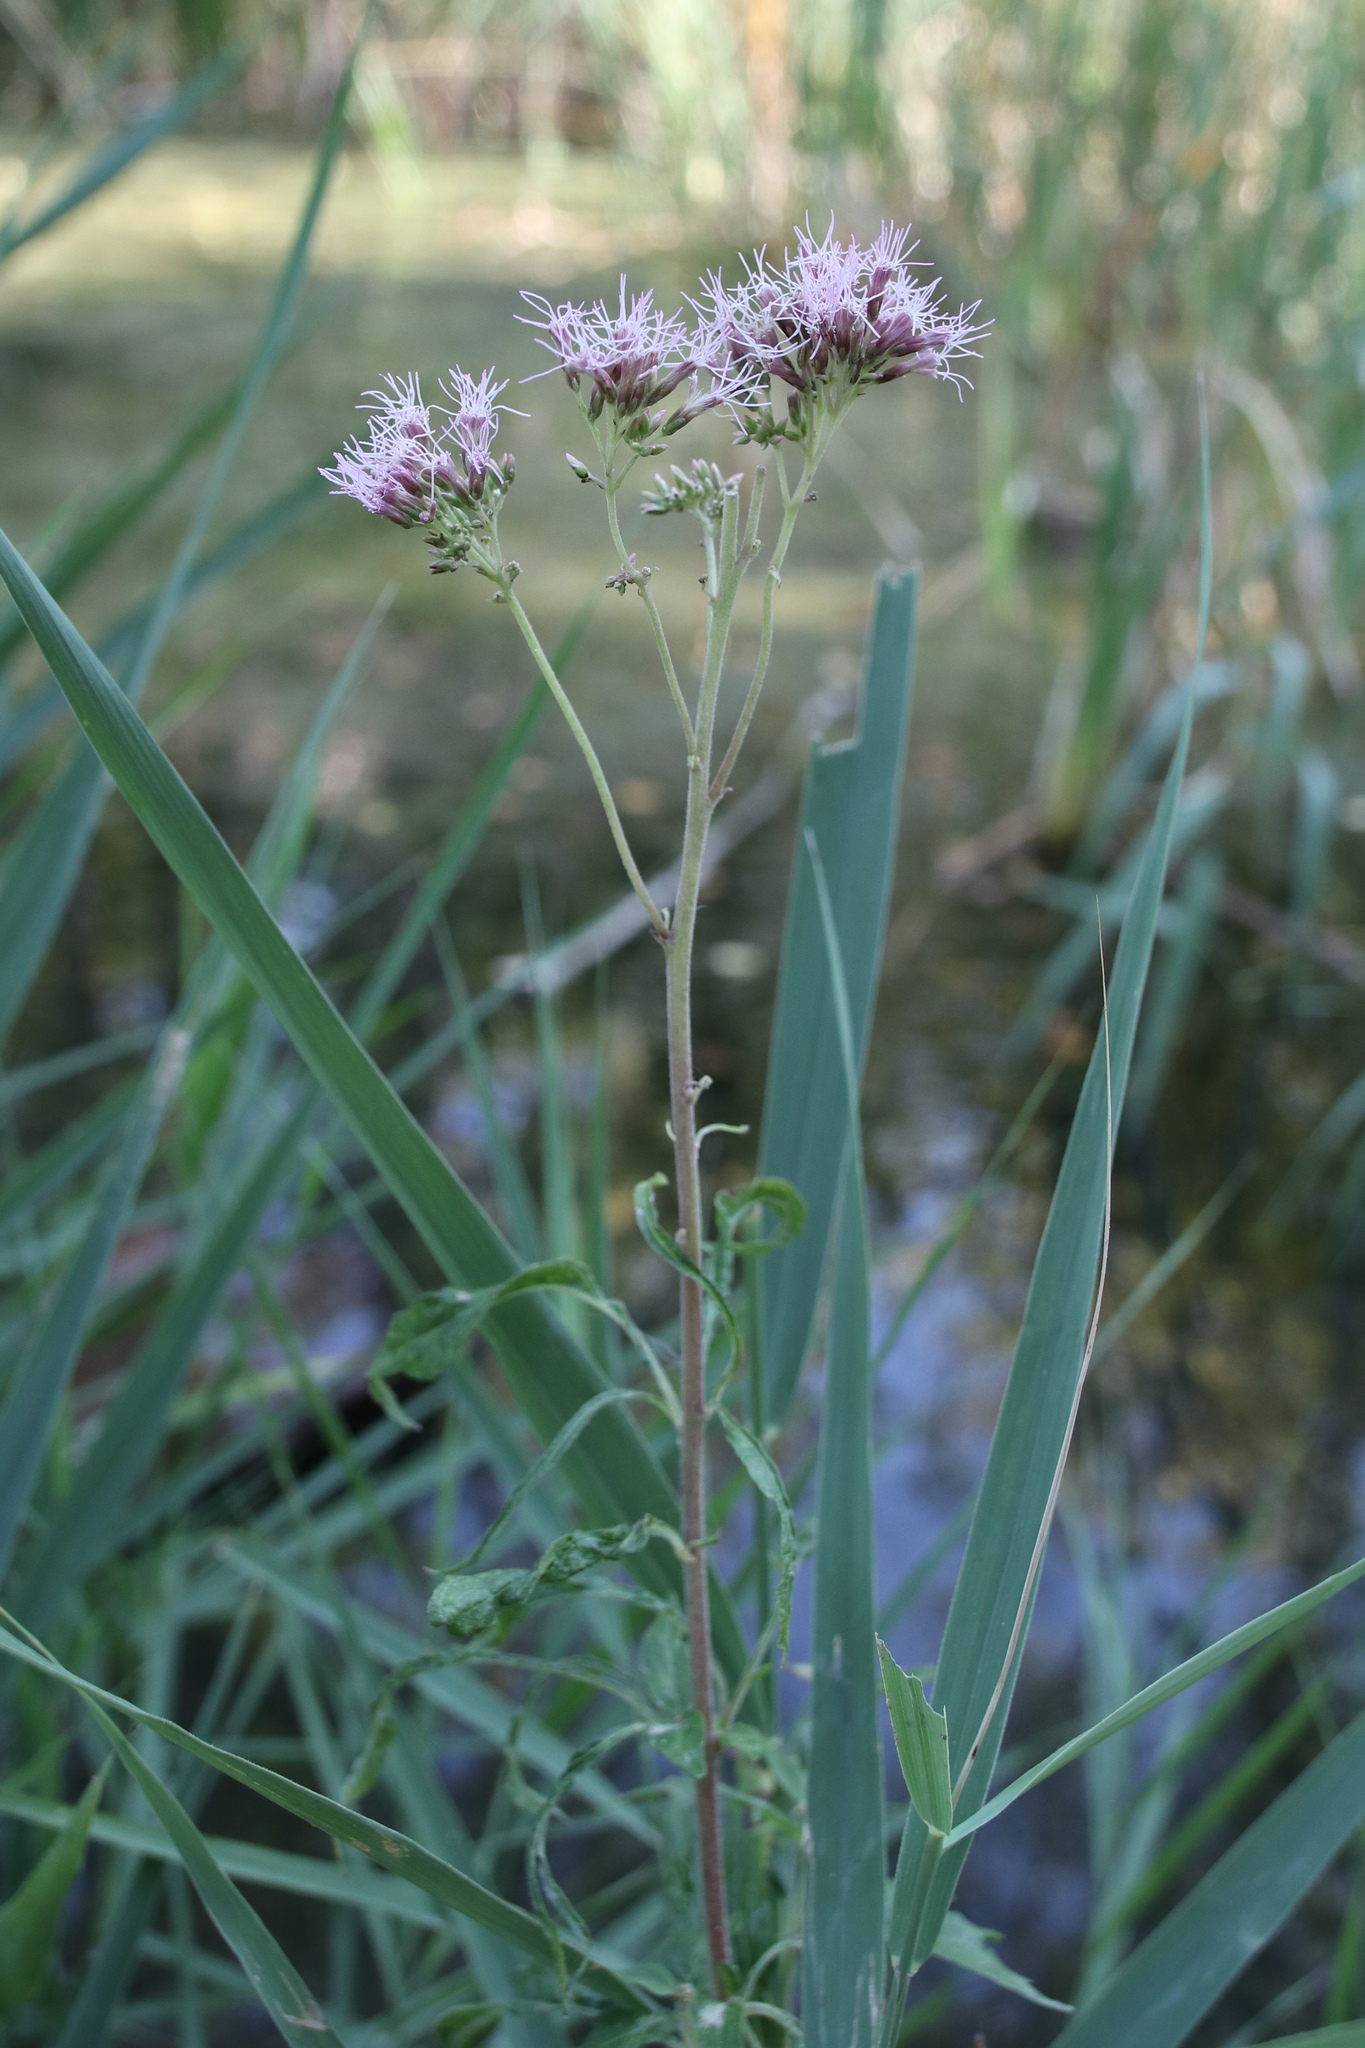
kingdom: Plantae
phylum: Tracheophyta
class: Magnoliopsida
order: Asterales
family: Asteraceae
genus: Eupatorium
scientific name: Eupatorium cannabinum
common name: Hemp-agrimony
